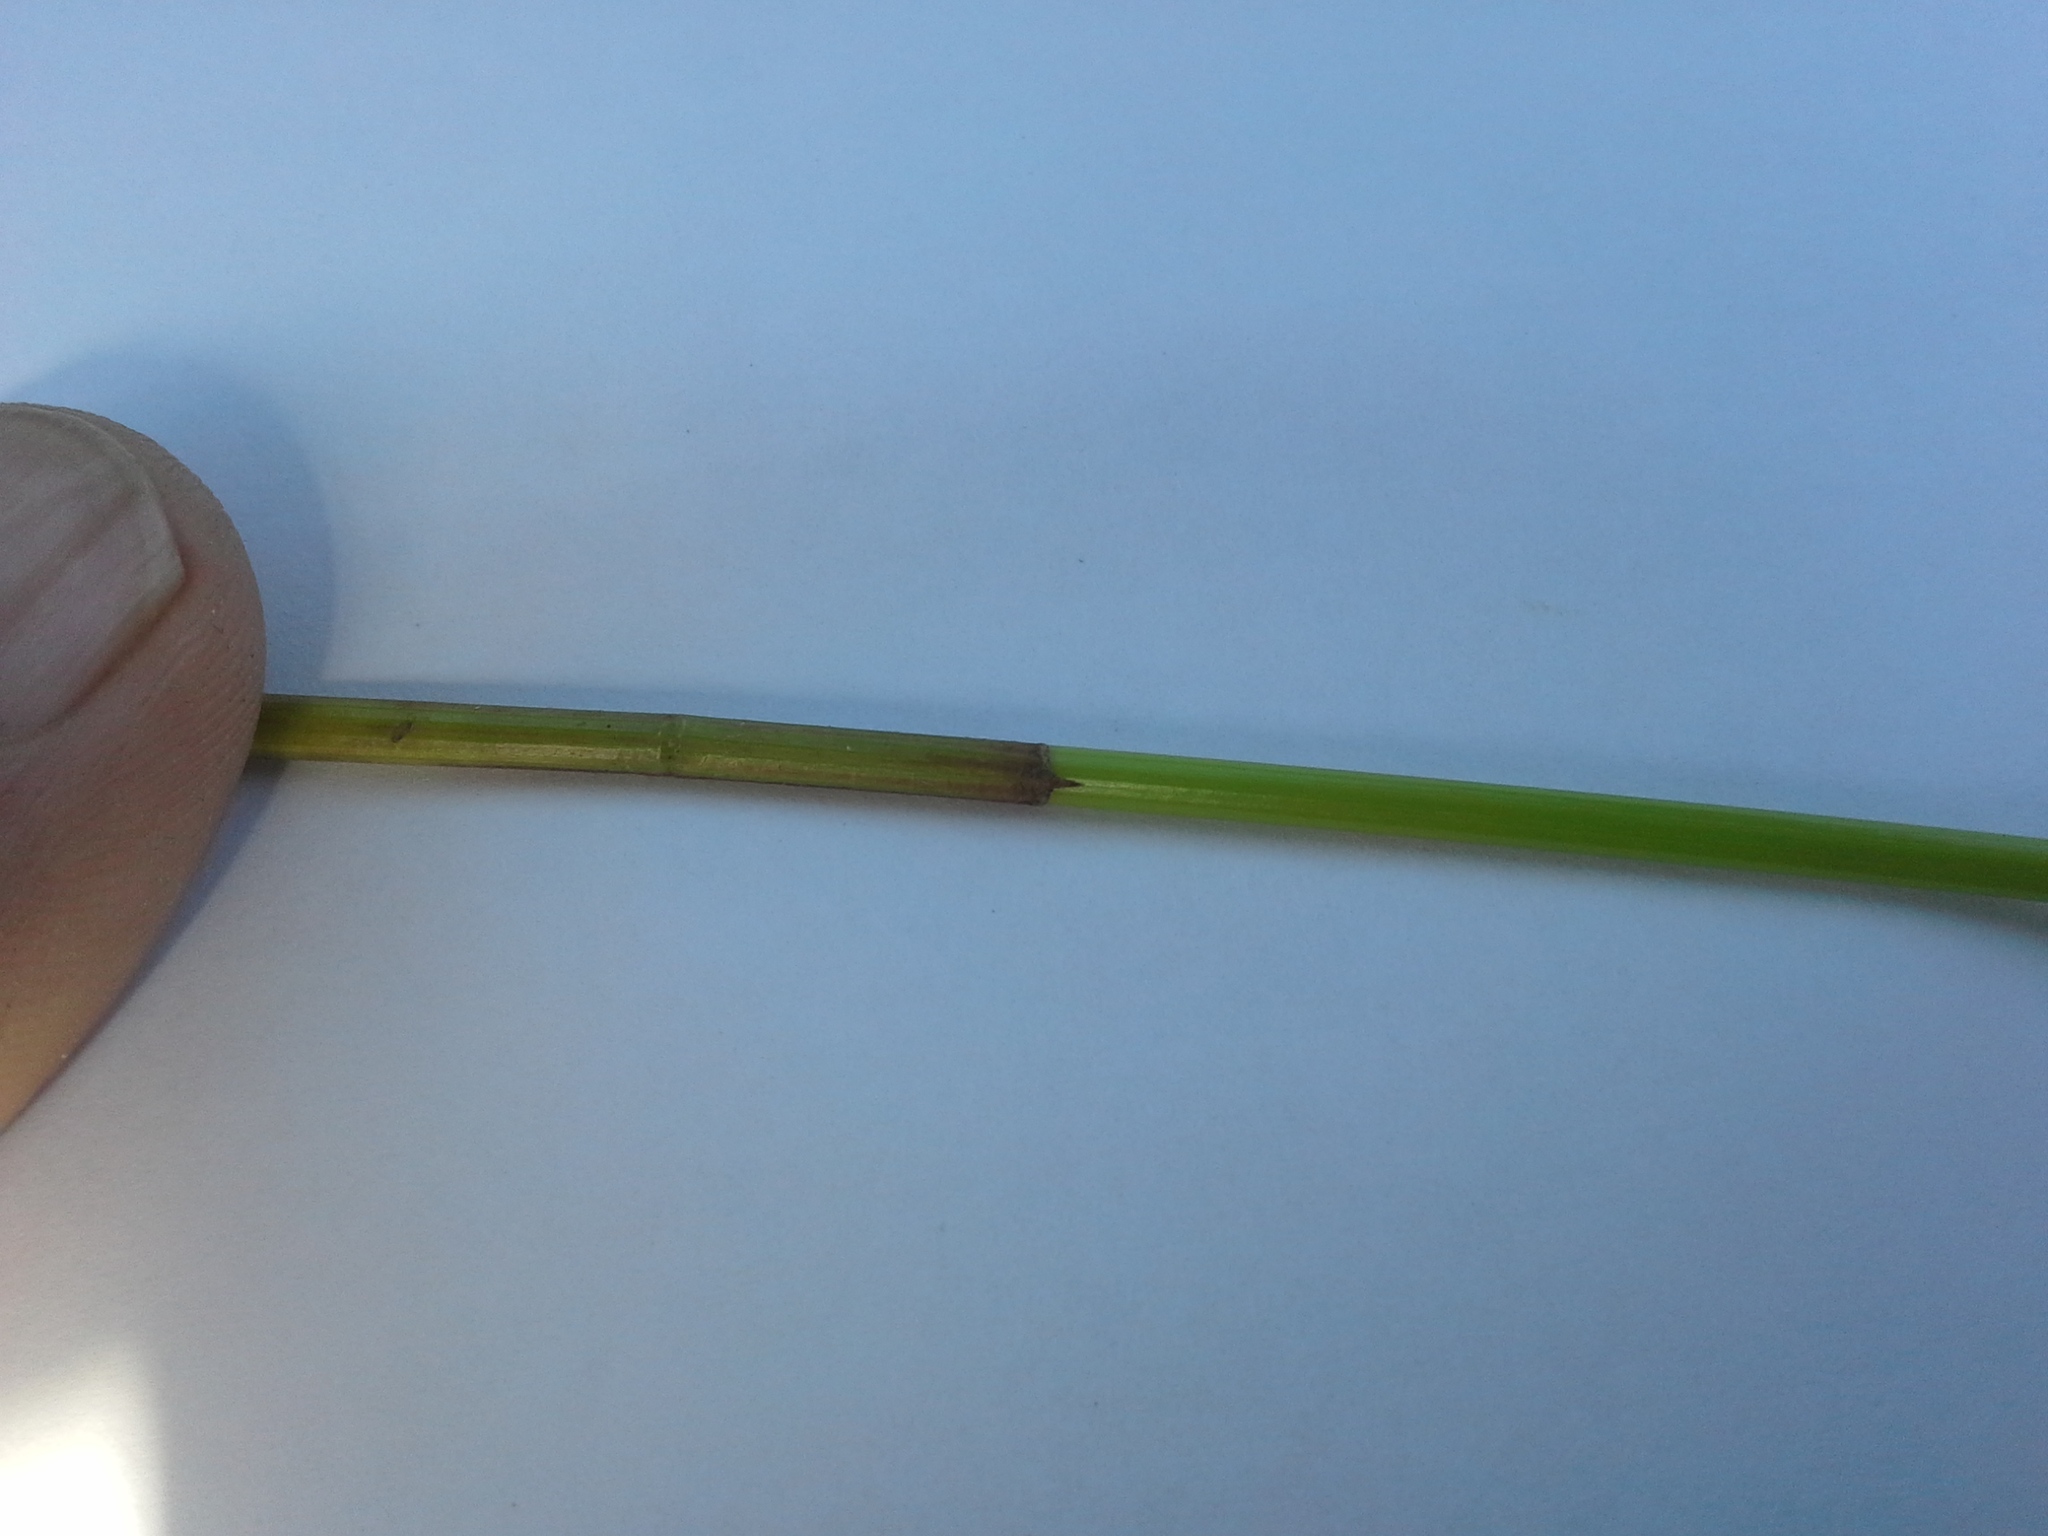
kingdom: Plantae
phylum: Tracheophyta
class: Liliopsida
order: Poales
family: Cyperaceae
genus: Eleocharis
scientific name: Eleocharis acuta
